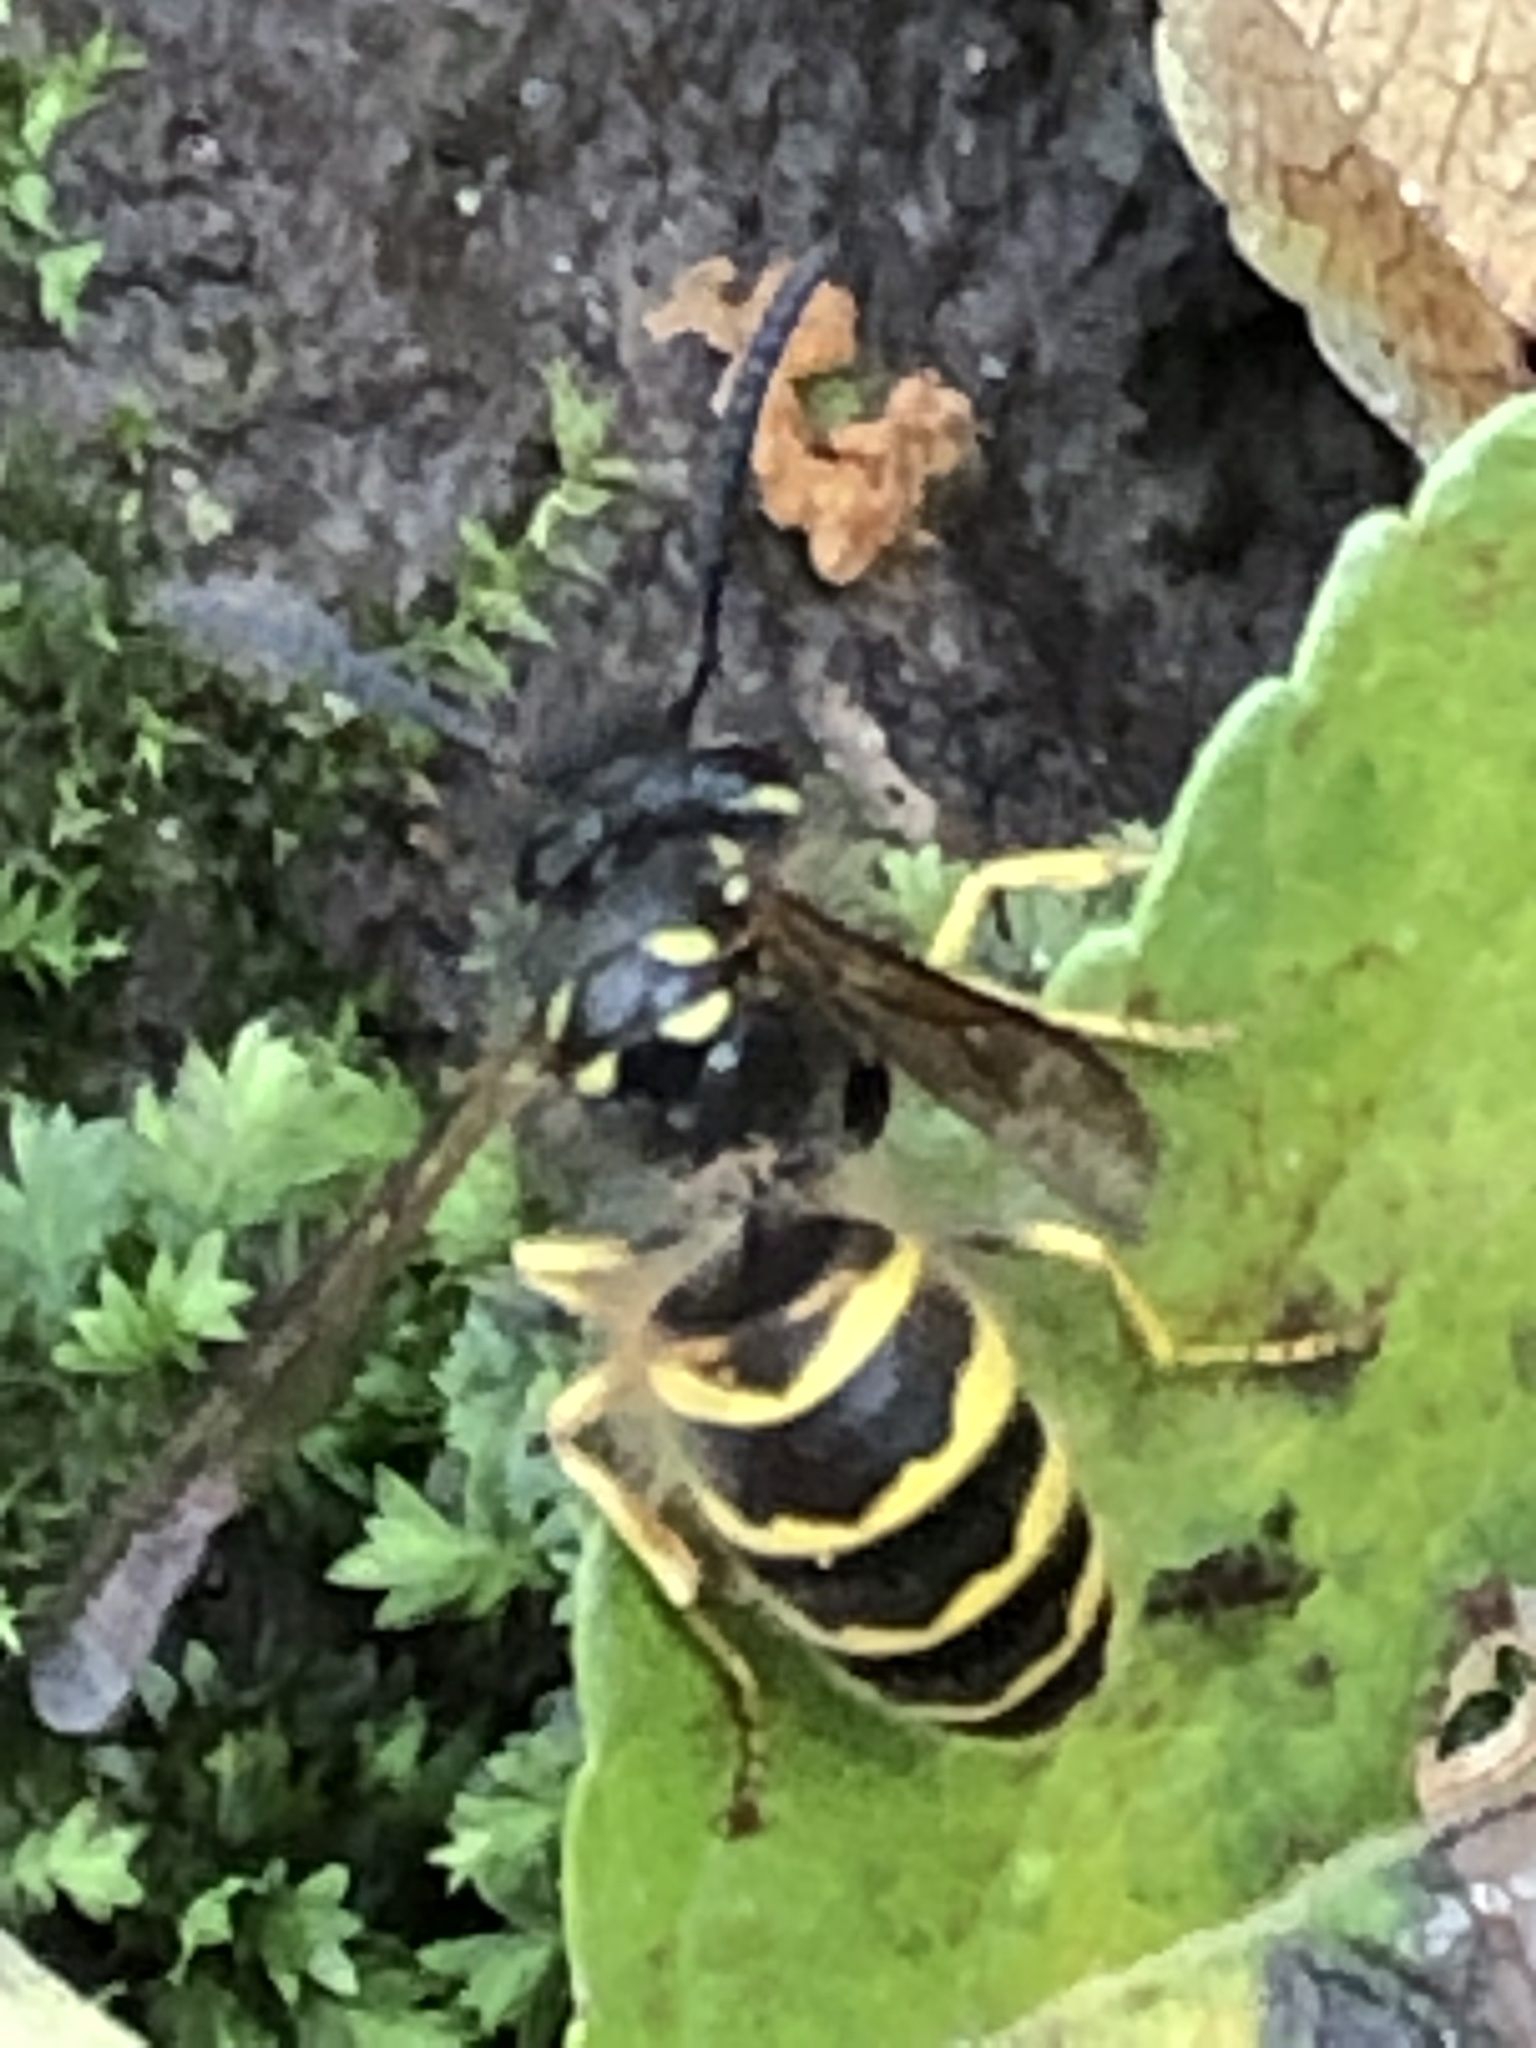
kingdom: Animalia
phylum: Arthropoda
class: Insecta
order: Hymenoptera
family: Vespidae
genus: Vespula
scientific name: Vespula alascensis
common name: Alaska yellowjacket
